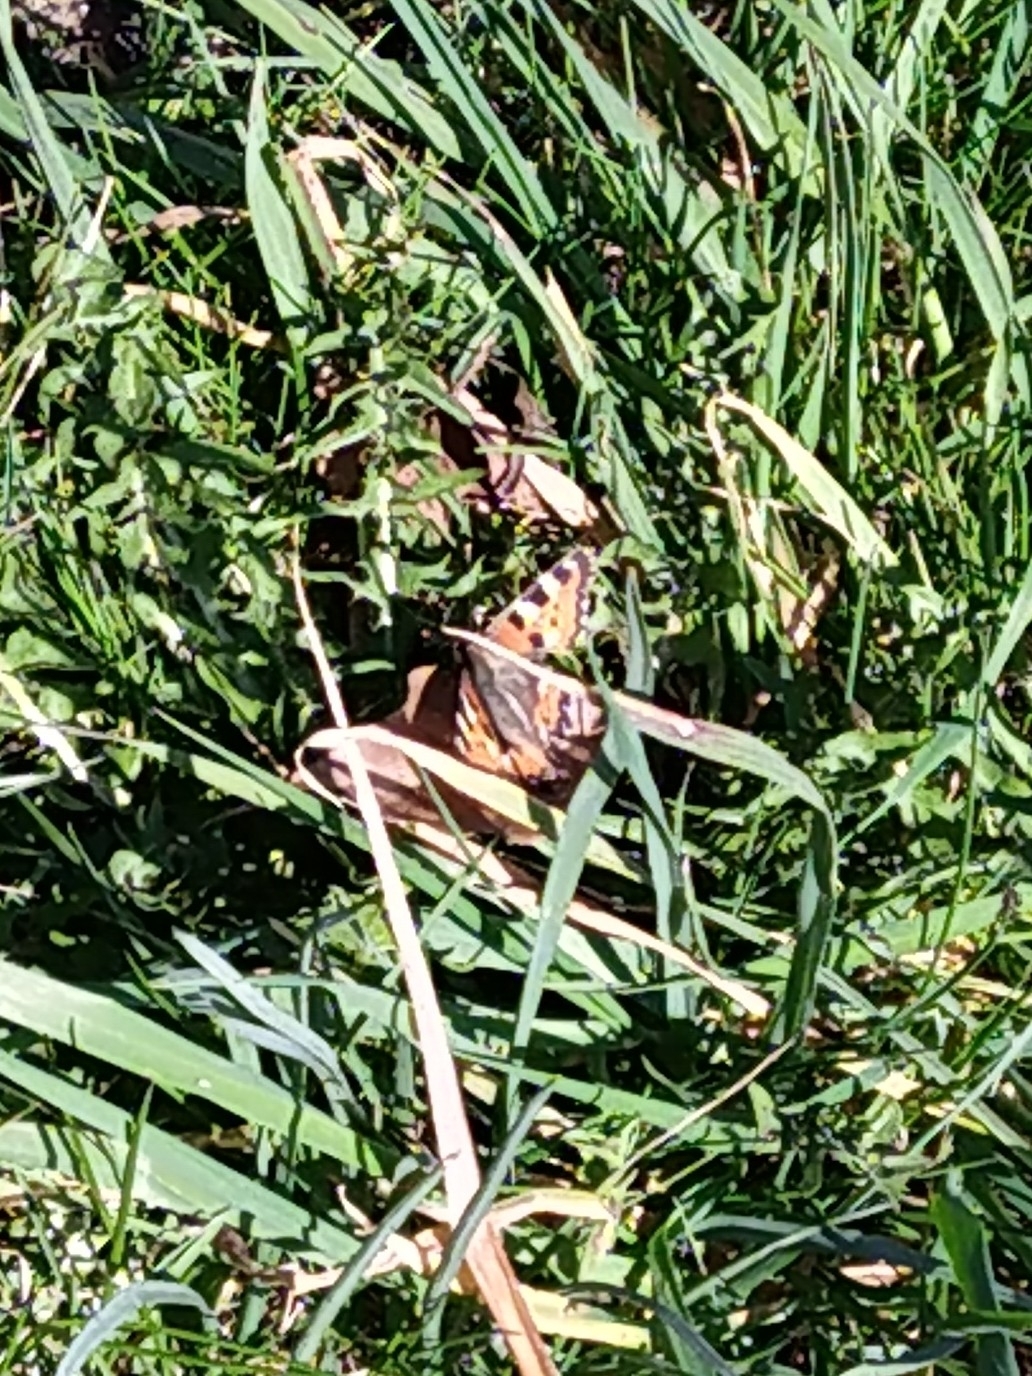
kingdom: Animalia
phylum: Arthropoda
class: Insecta
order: Lepidoptera
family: Nymphalidae
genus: Aglais
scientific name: Aglais urticae
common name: Small tortoiseshell
